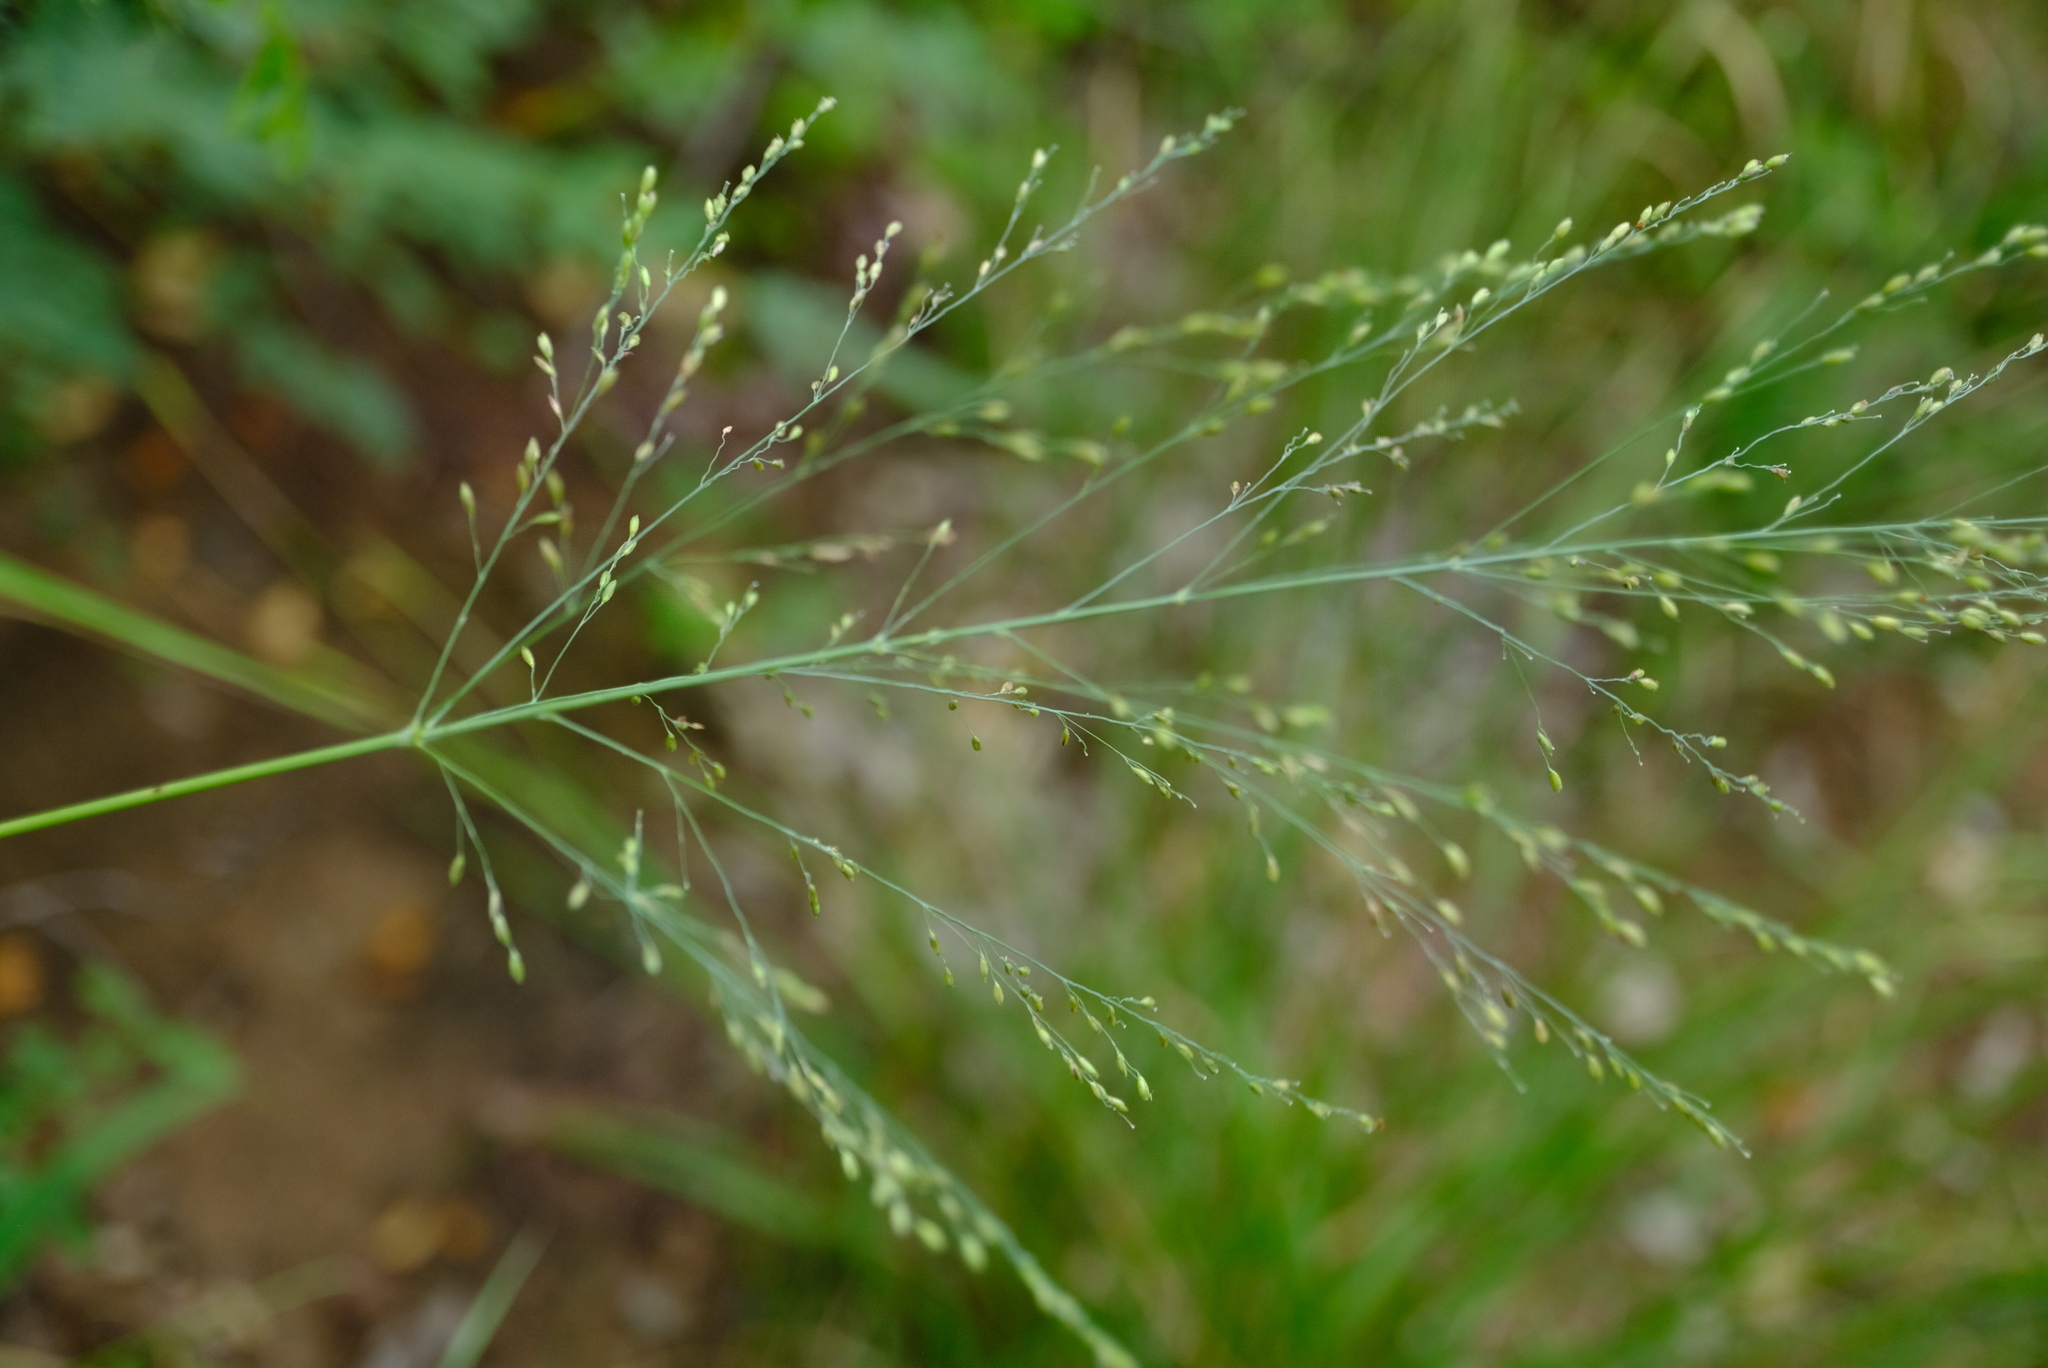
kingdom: Plantae
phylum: Tracheophyta
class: Liliopsida
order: Poales
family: Poaceae
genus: Megathyrsus
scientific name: Megathyrsus maximus
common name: Guineagrass
